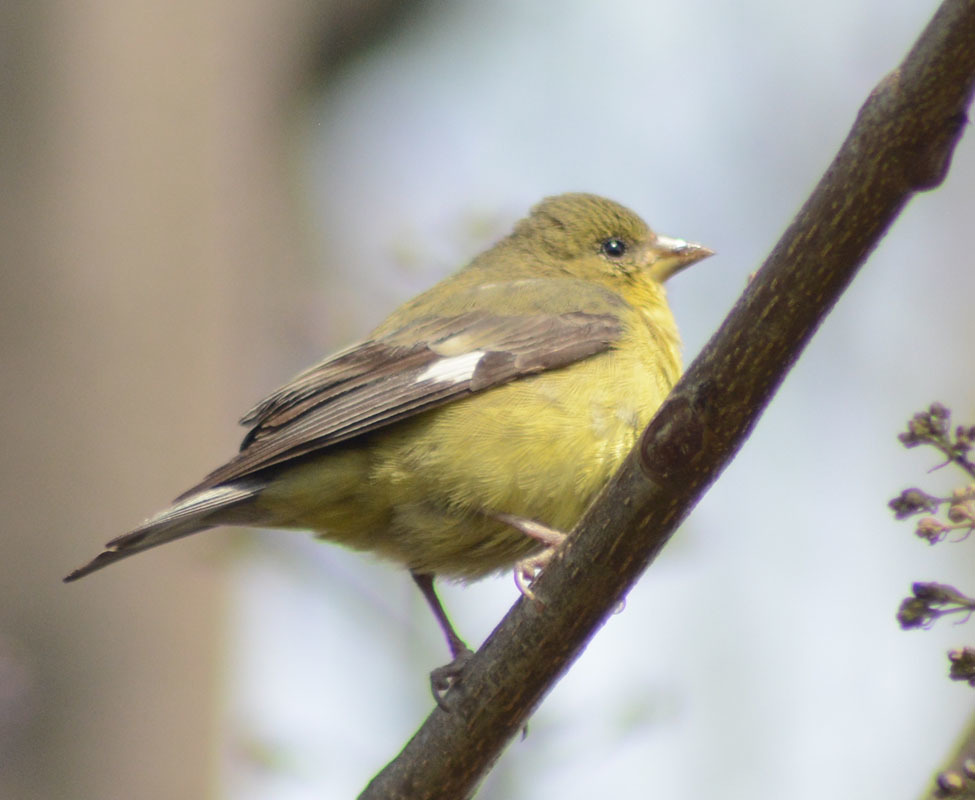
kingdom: Animalia
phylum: Chordata
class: Aves
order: Passeriformes
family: Fringillidae
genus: Spinus
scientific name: Spinus psaltria
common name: Lesser goldfinch
